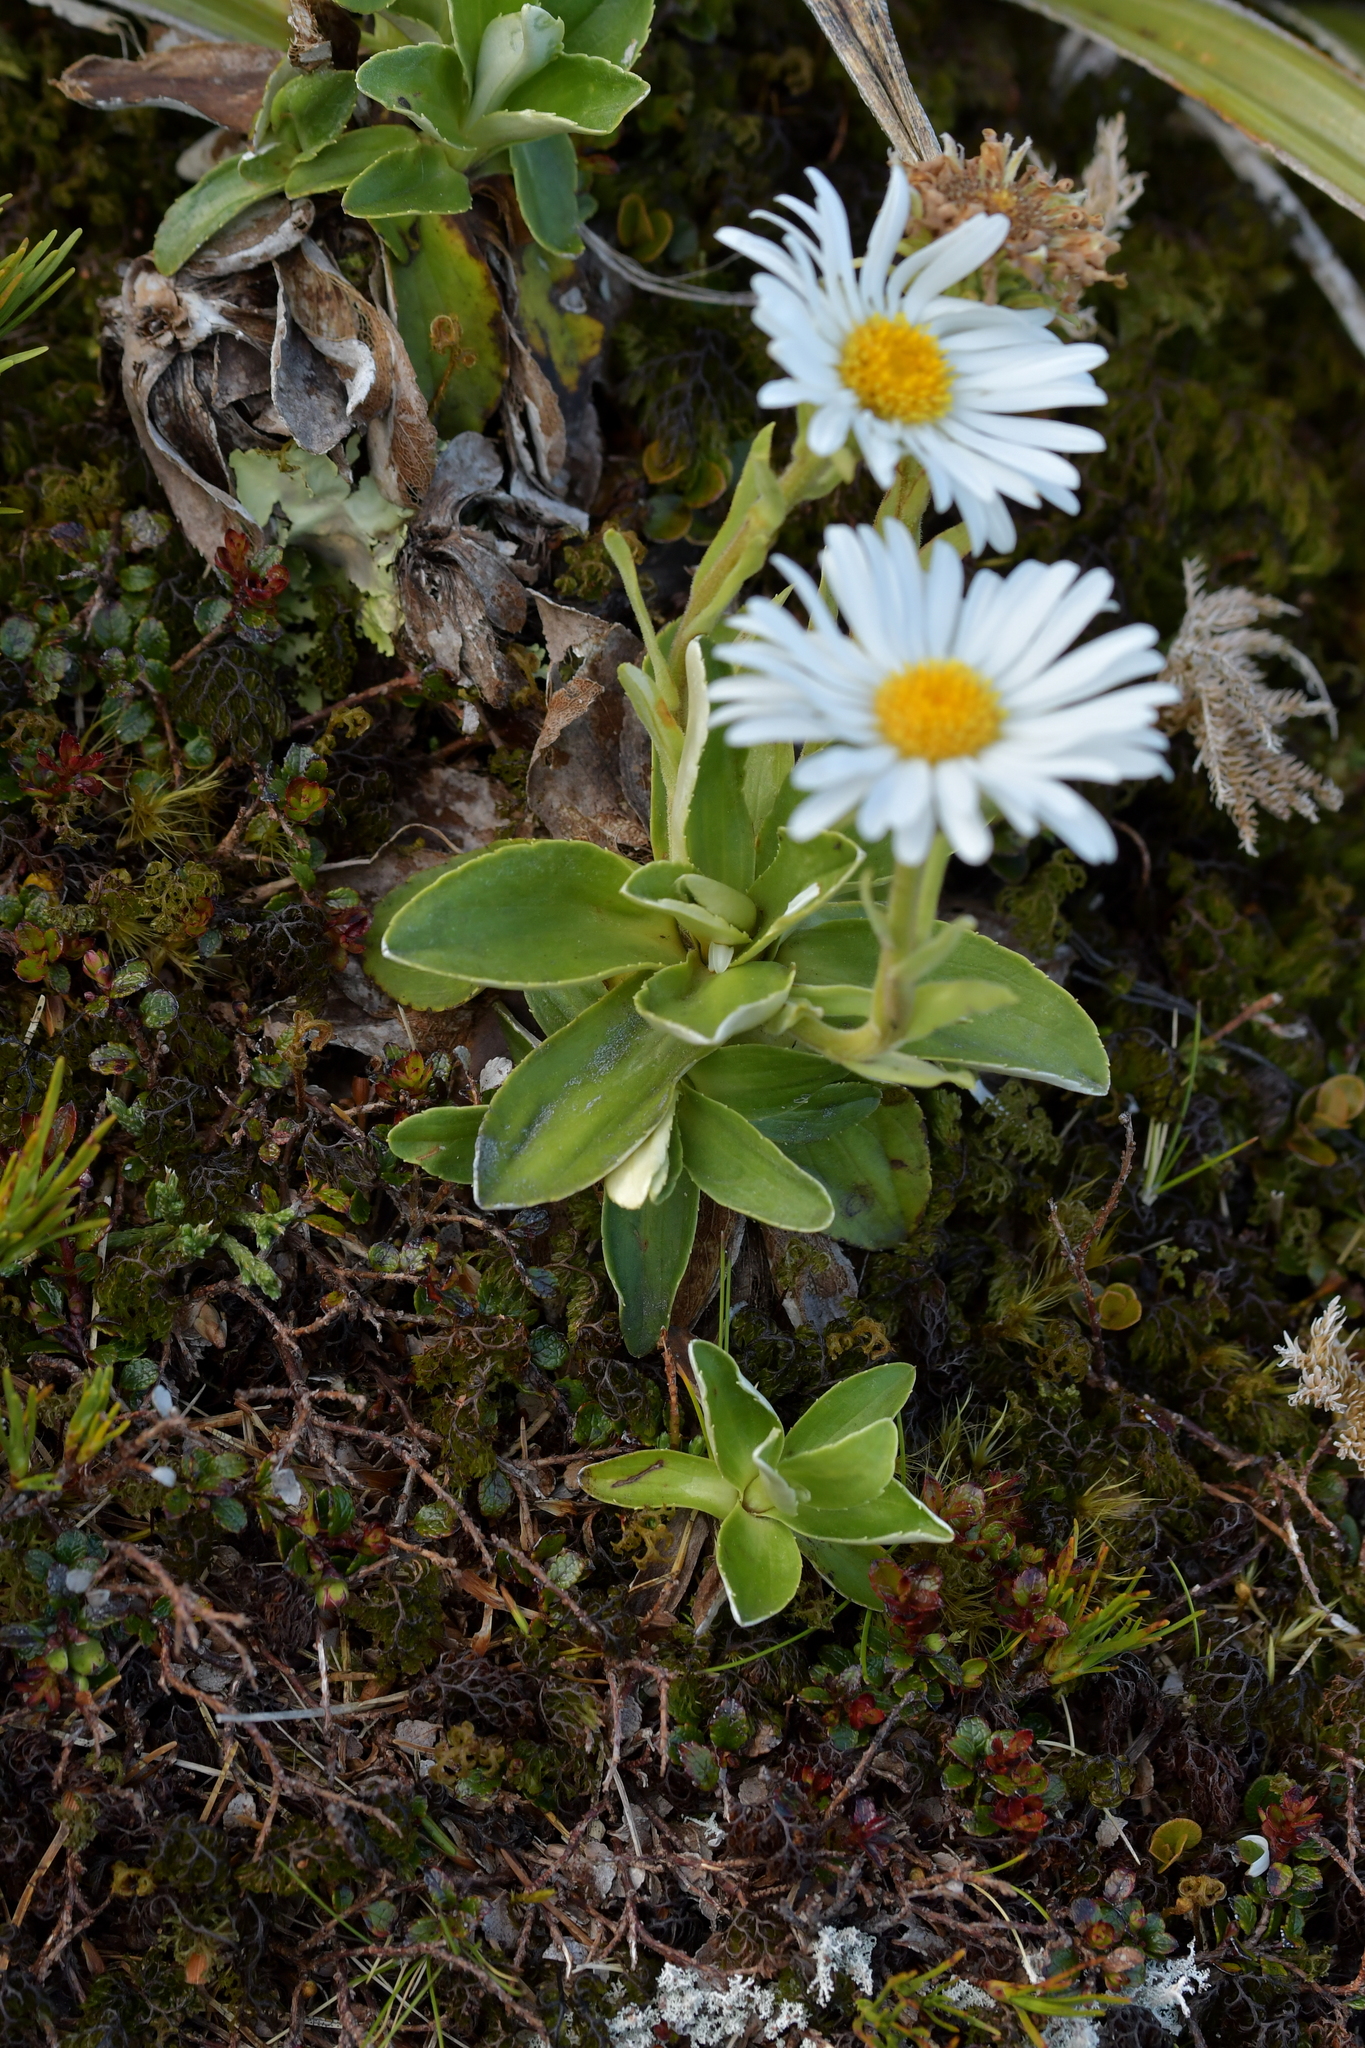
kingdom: Plantae
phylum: Tracheophyta
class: Magnoliopsida
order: Asterales
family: Asteraceae
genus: Celmisia
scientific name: Celmisia hieraciifolia
